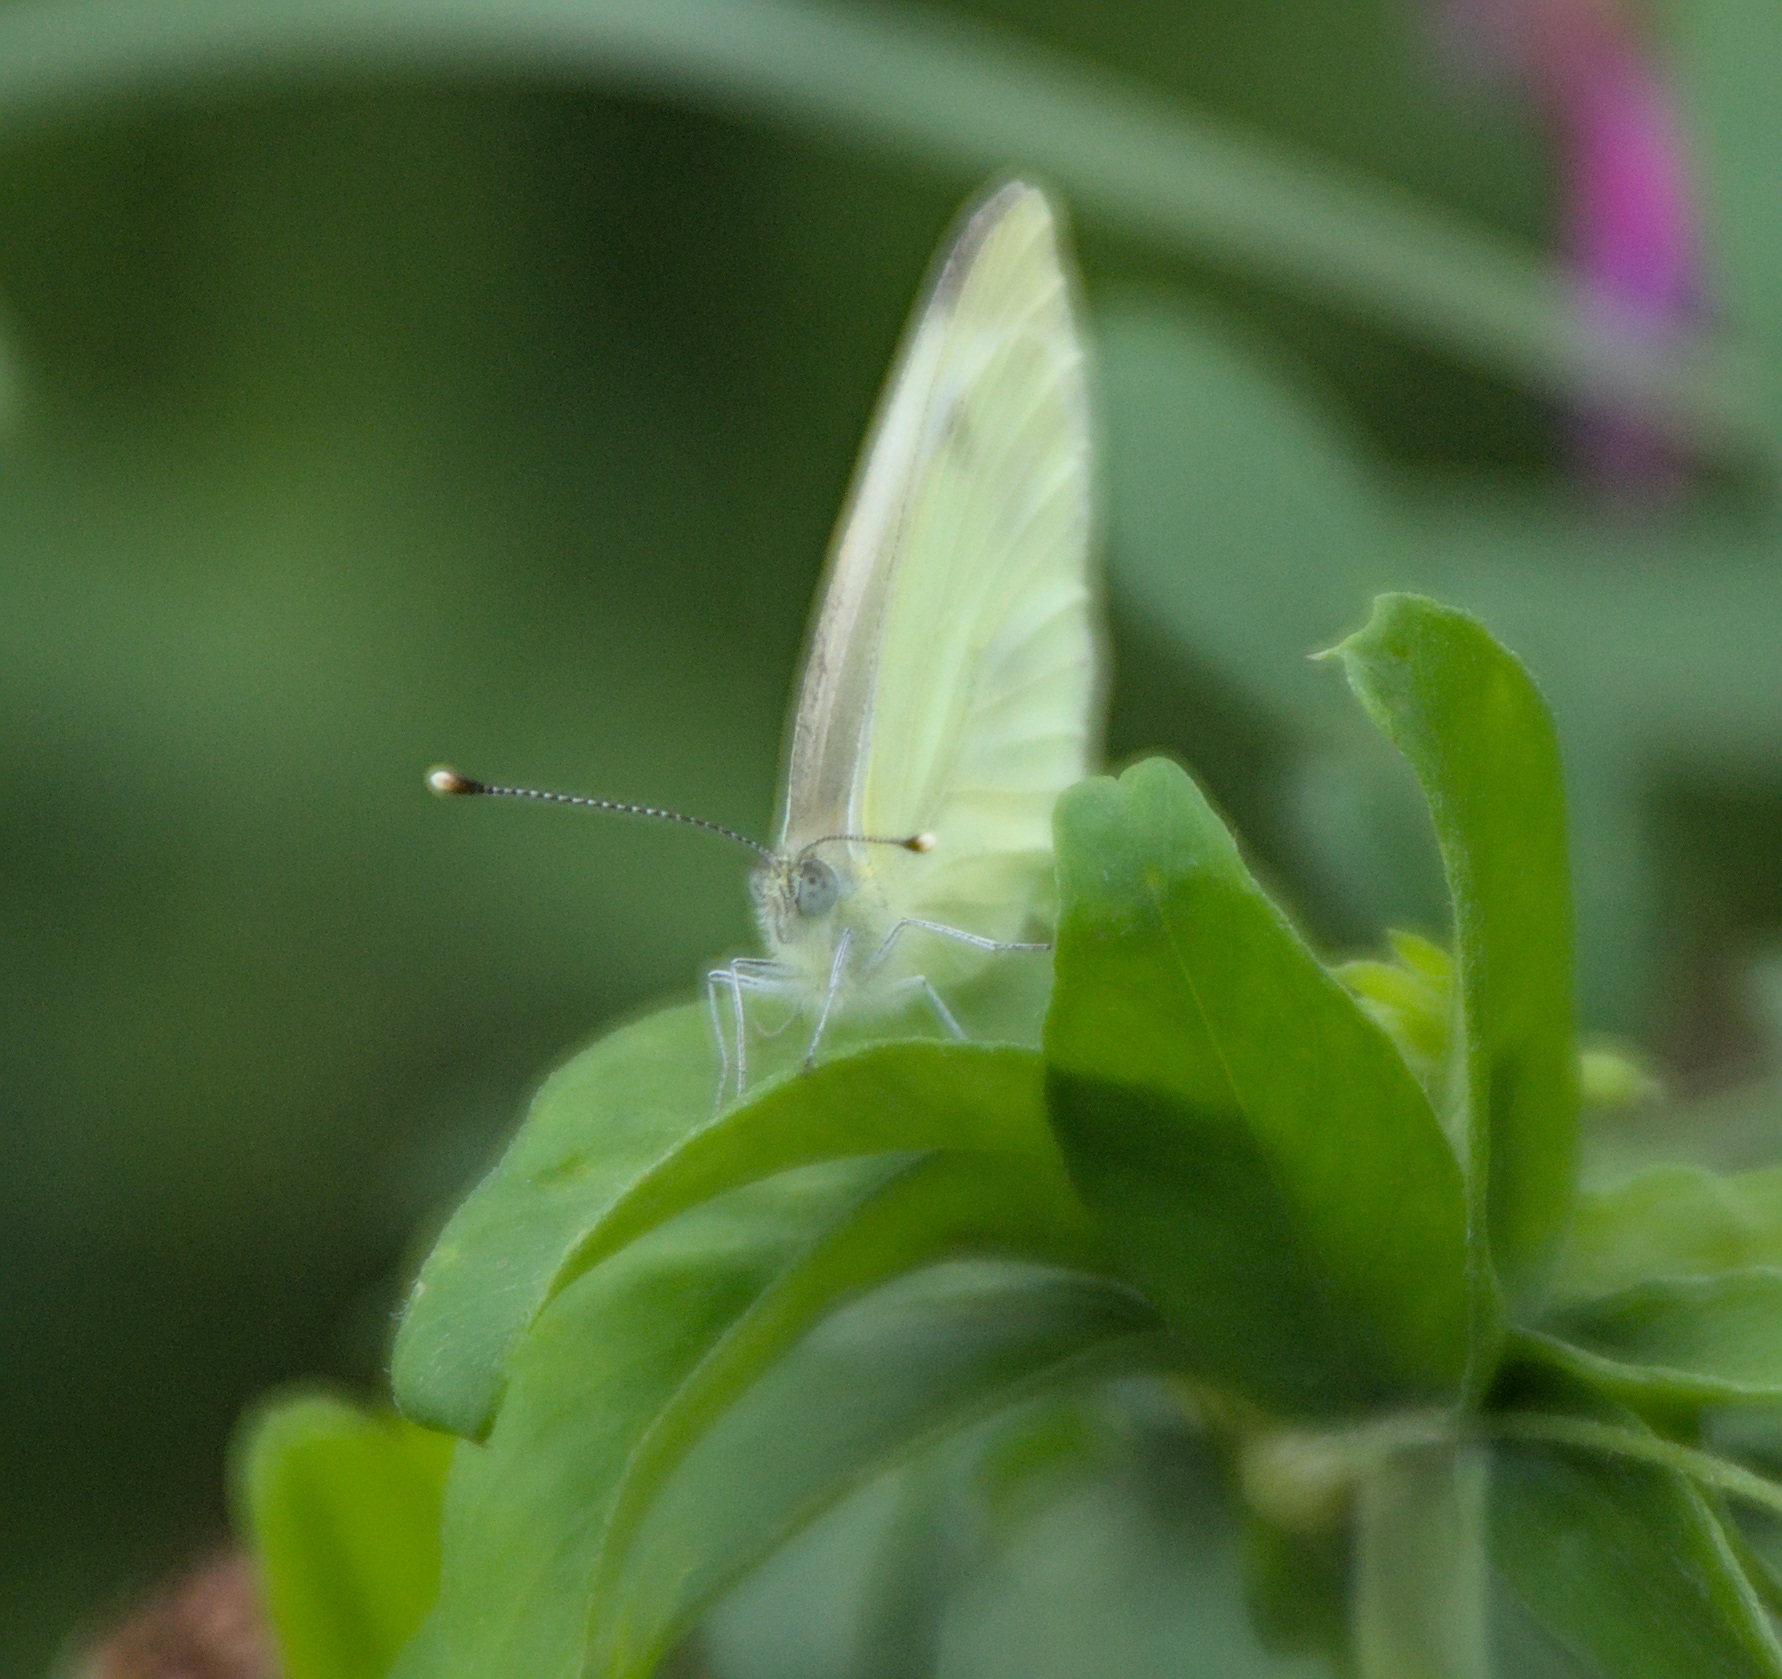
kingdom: Animalia
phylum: Arthropoda
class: Insecta
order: Lepidoptera
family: Pieridae
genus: Pieris
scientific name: Pieris napi
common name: Green-veined white
